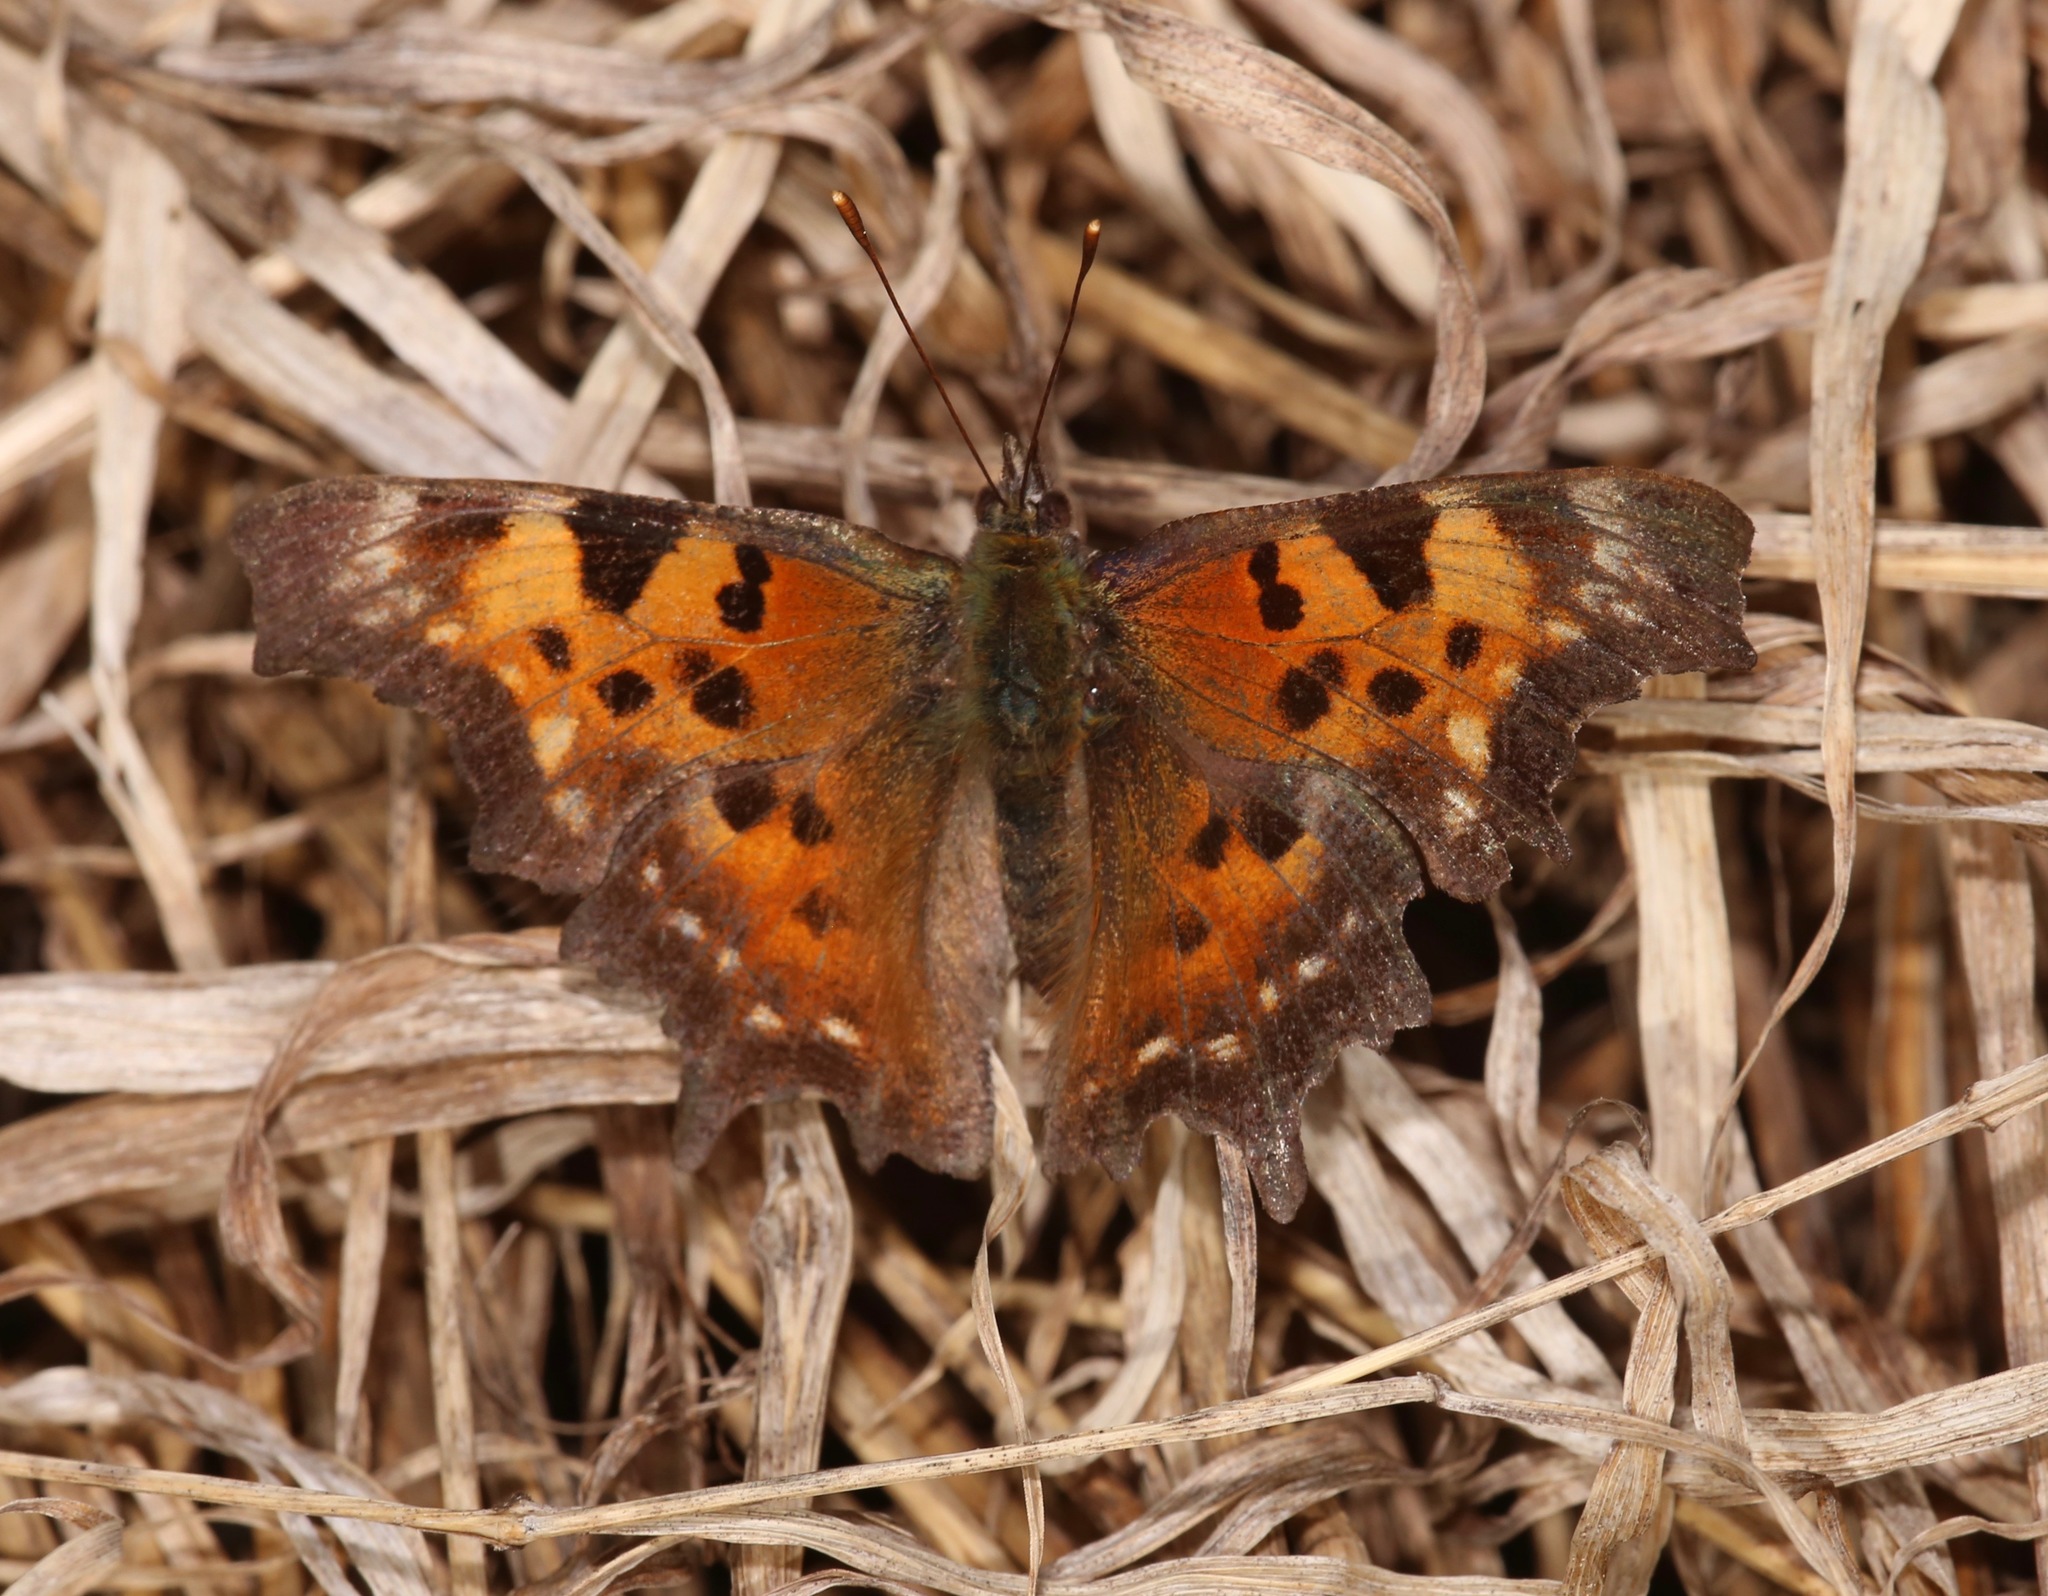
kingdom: Animalia
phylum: Arthropoda
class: Insecta
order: Lepidoptera
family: Nymphalidae
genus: Polygonia
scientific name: Polygonia faunus
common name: Green comma
